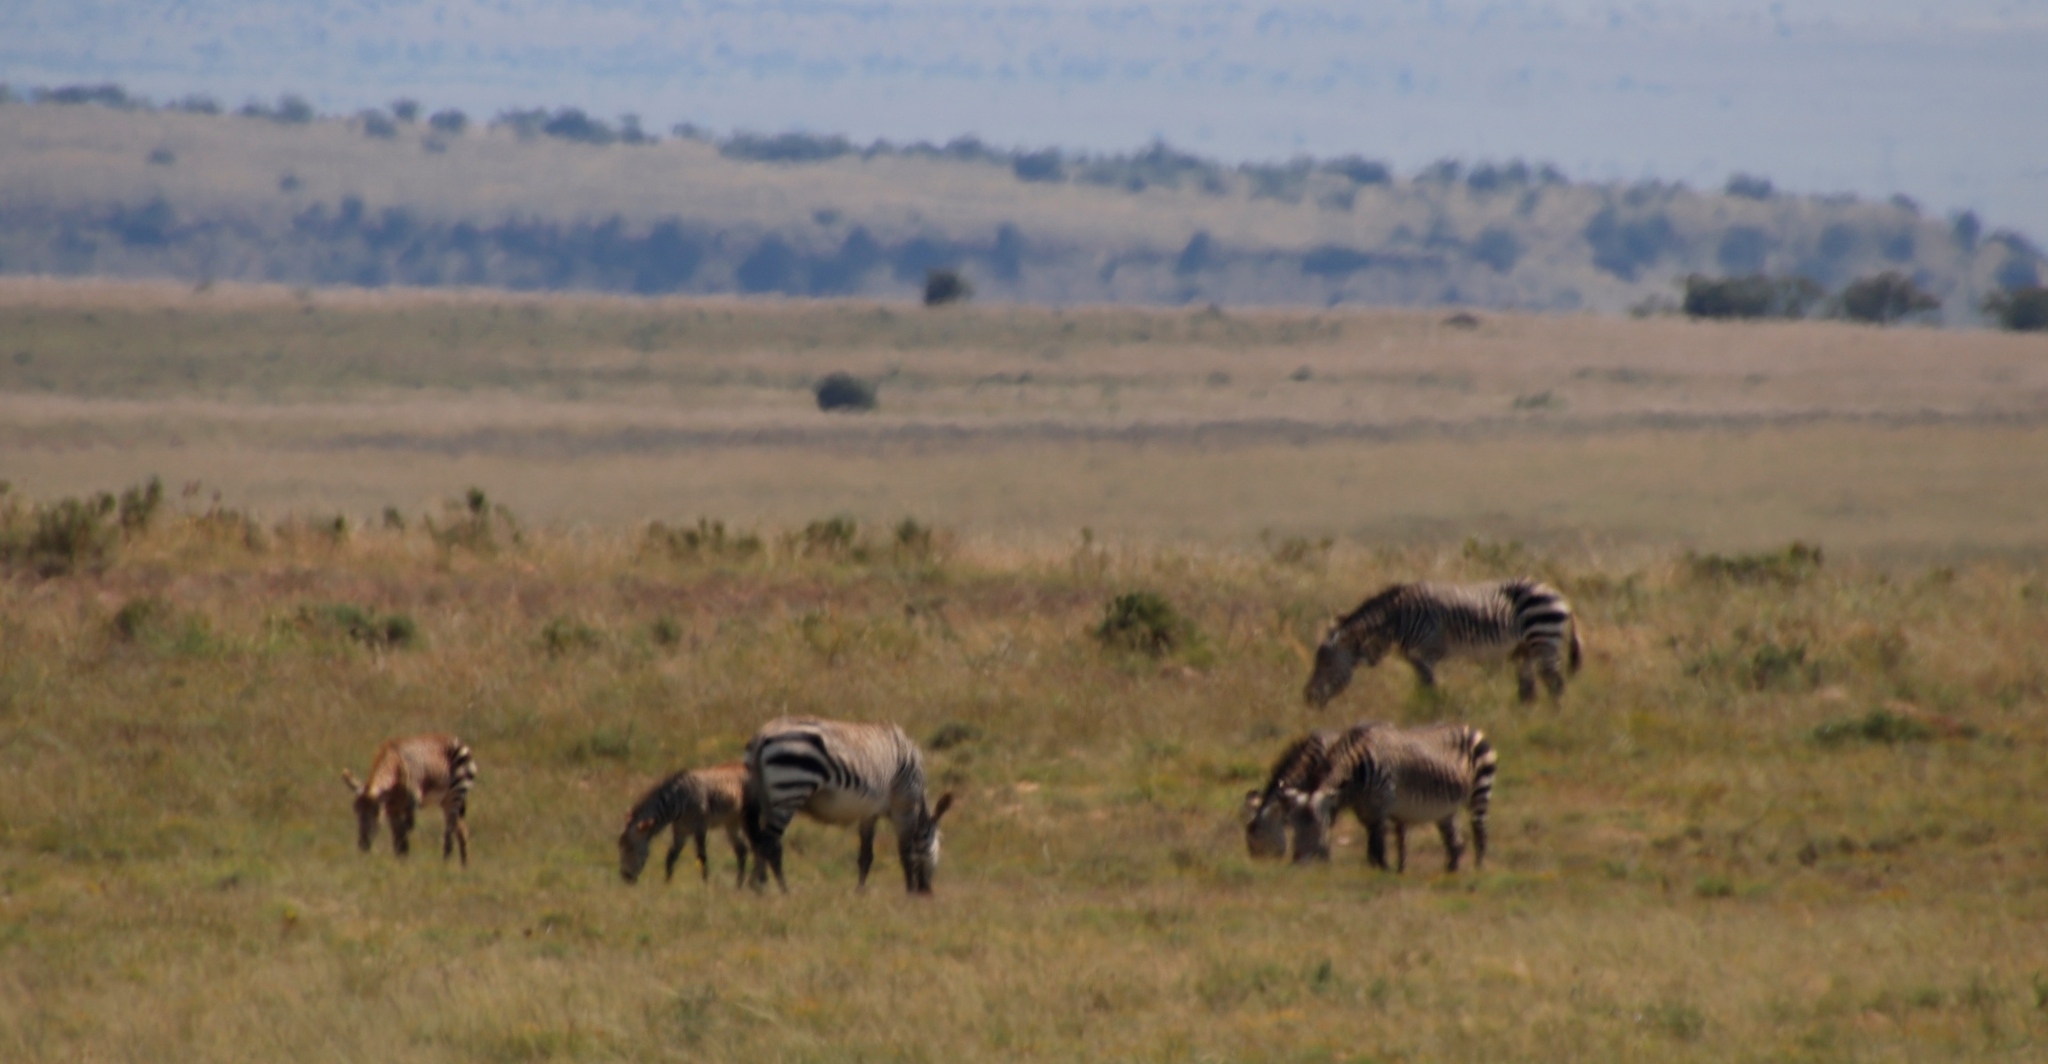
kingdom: Animalia
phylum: Chordata
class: Mammalia
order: Perissodactyla
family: Equidae
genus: Equus
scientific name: Equus zebra
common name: Mountain zebra
